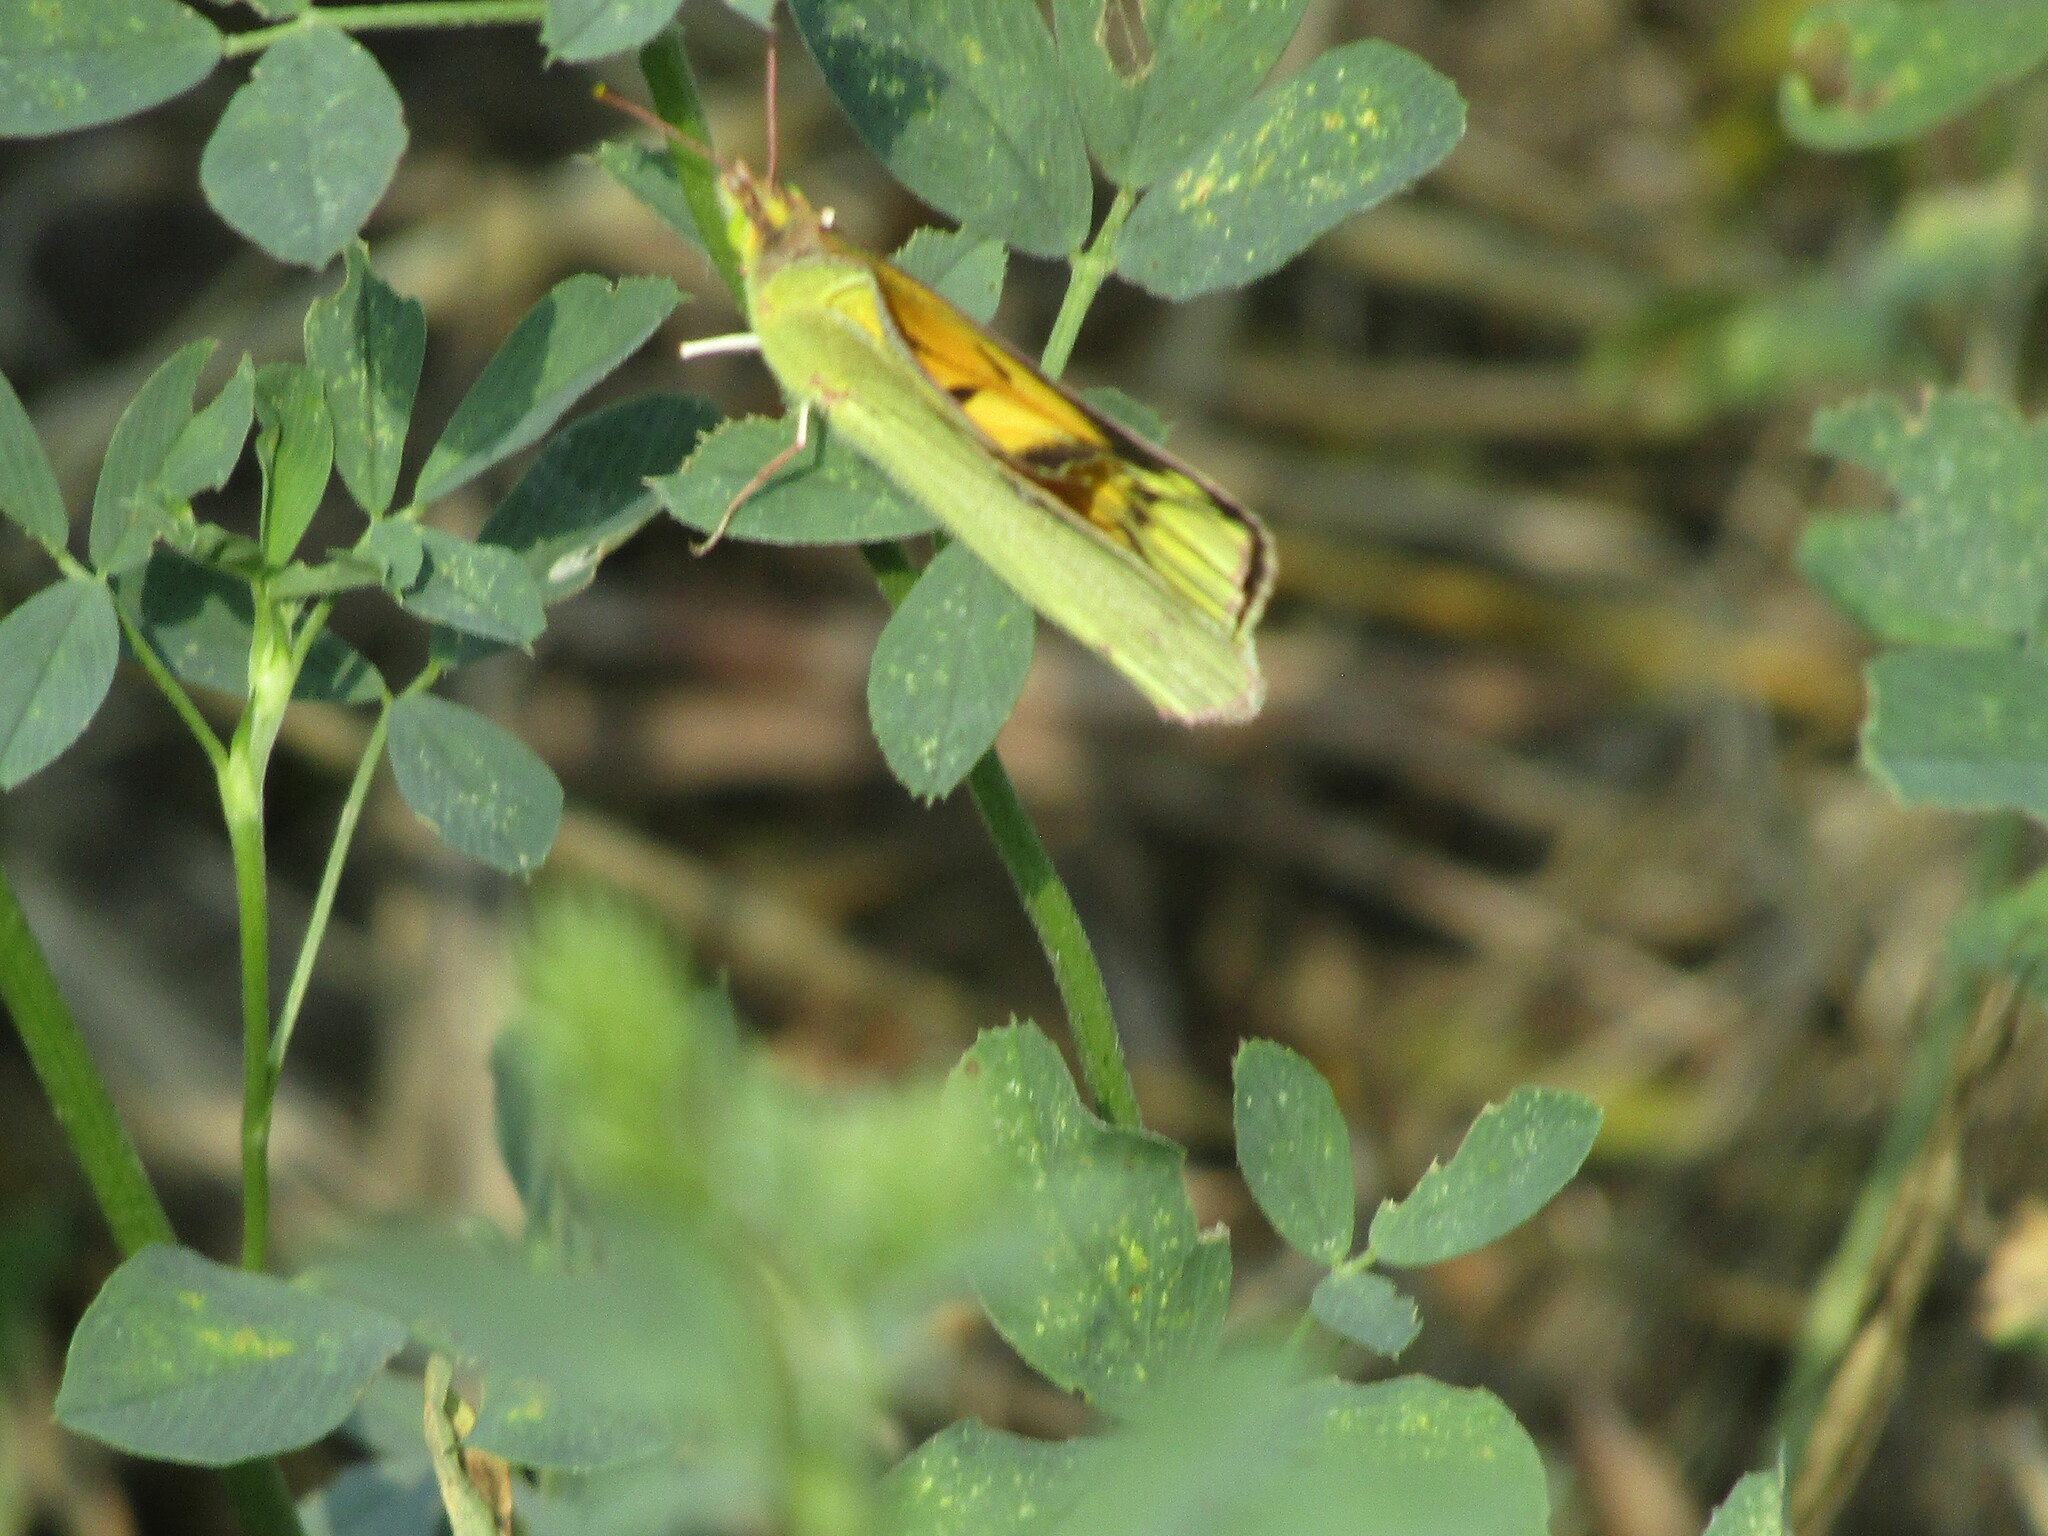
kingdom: Animalia
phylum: Arthropoda
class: Insecta
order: Lepidoptera
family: Pieridae
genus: Colias
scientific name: Colias croceus
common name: Clouded yellow
